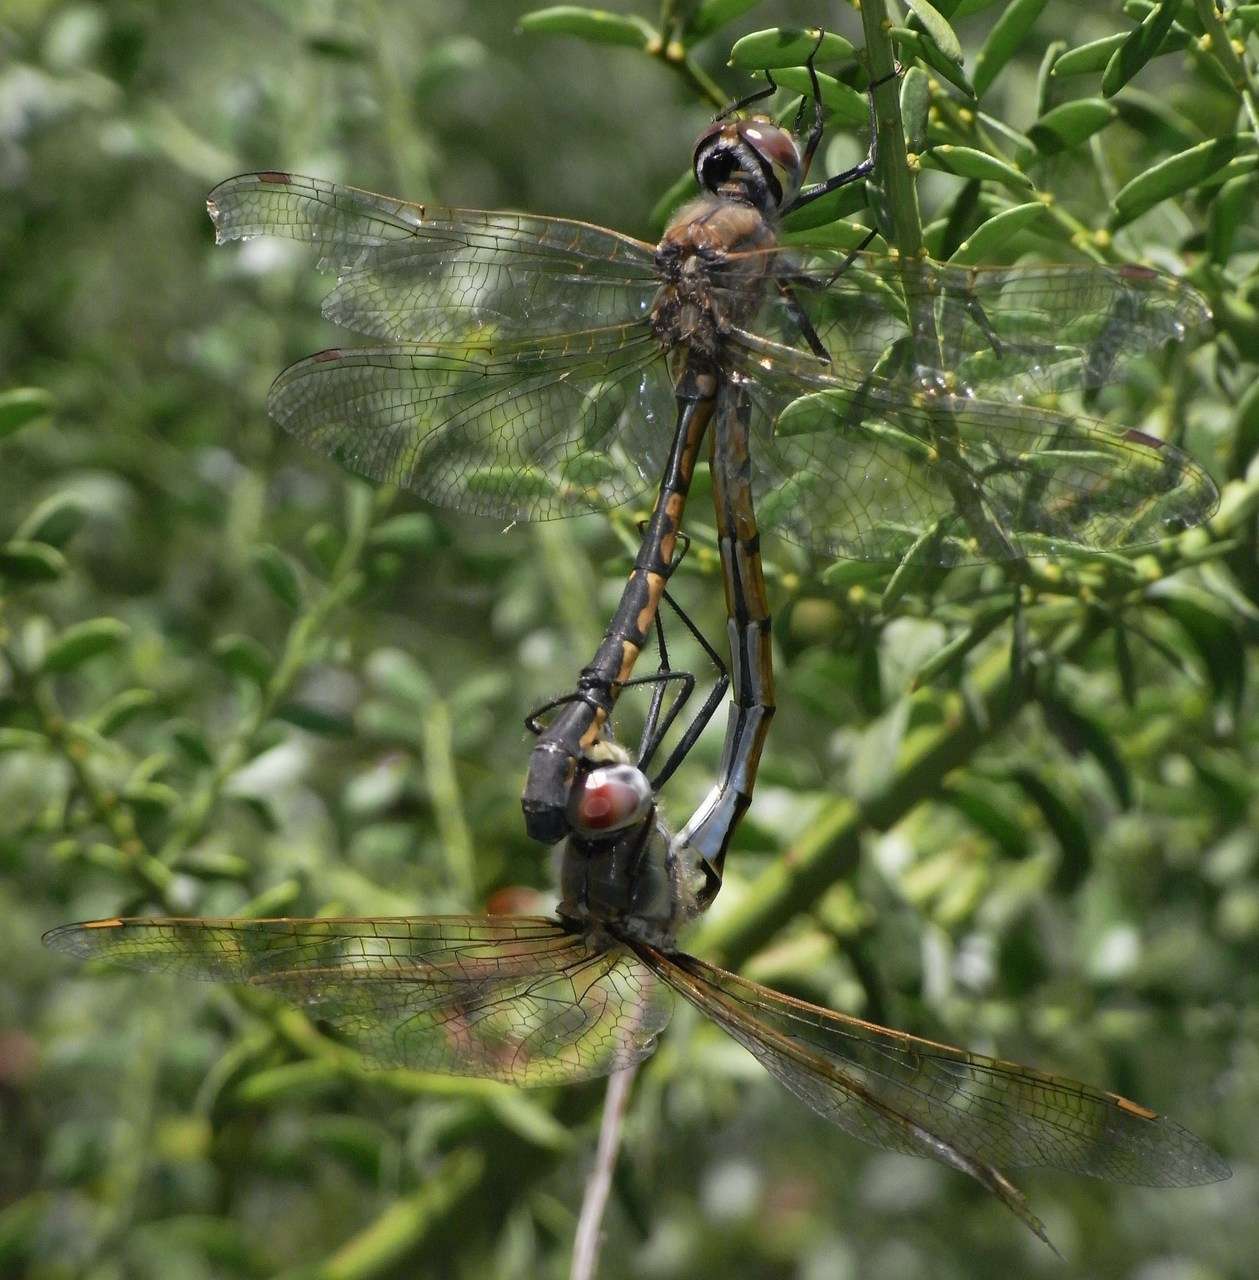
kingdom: Animalia
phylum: Arthropoda
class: Insecta
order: Odonata
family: Corduliidae
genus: Hemicordulia
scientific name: Hemicordulia tau
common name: Tau emerald
